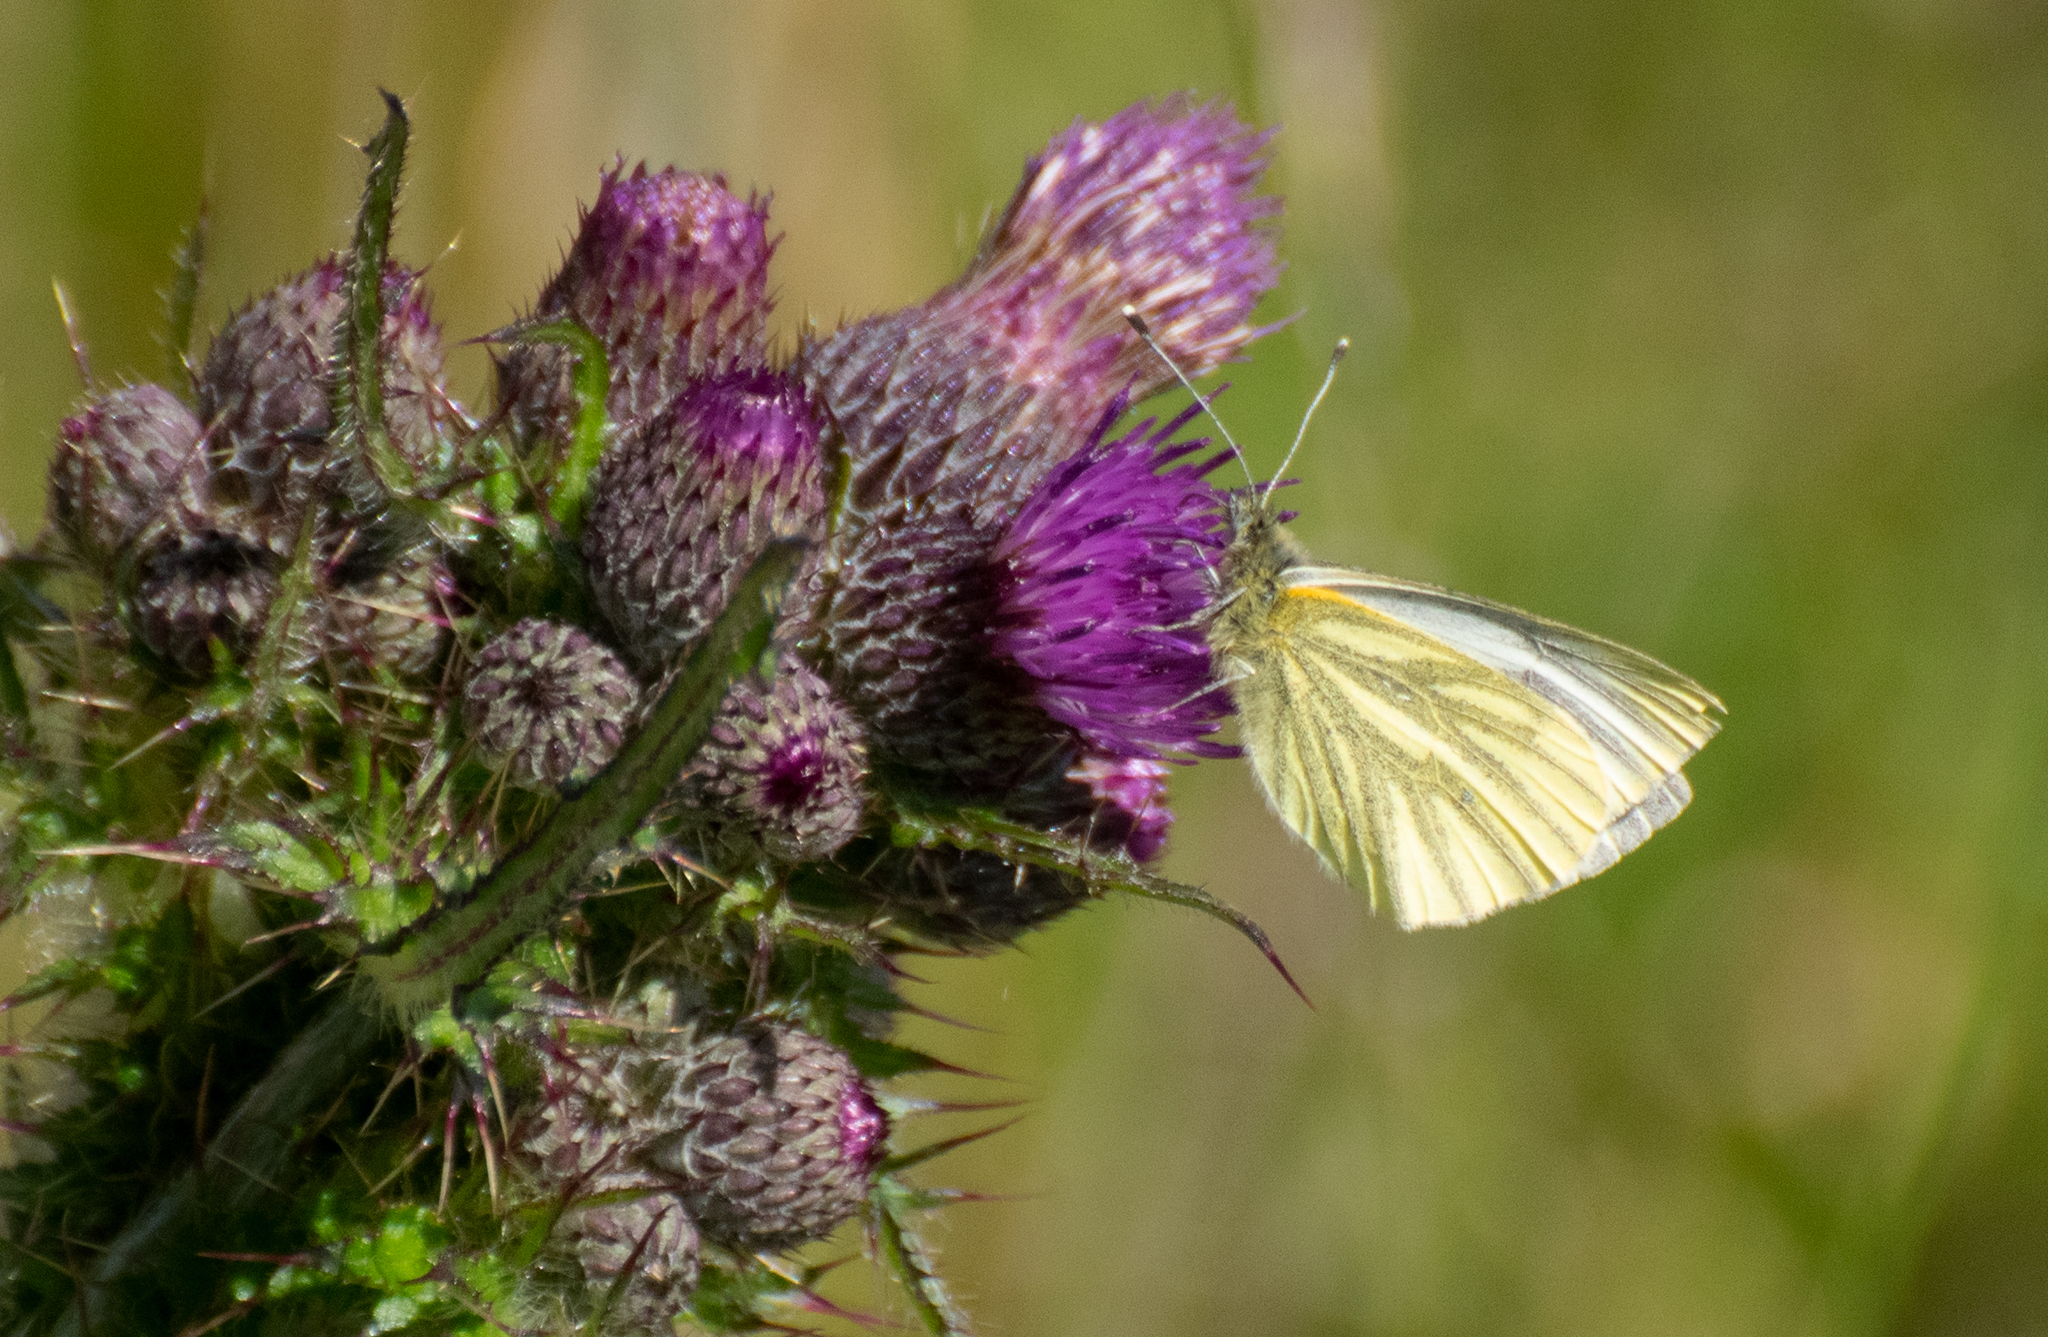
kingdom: Animalia
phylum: Arthropoda
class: Insecta
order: Lepidoptera
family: Pieridae
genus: Pieris
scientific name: Pieris napi
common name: Green-veined white
